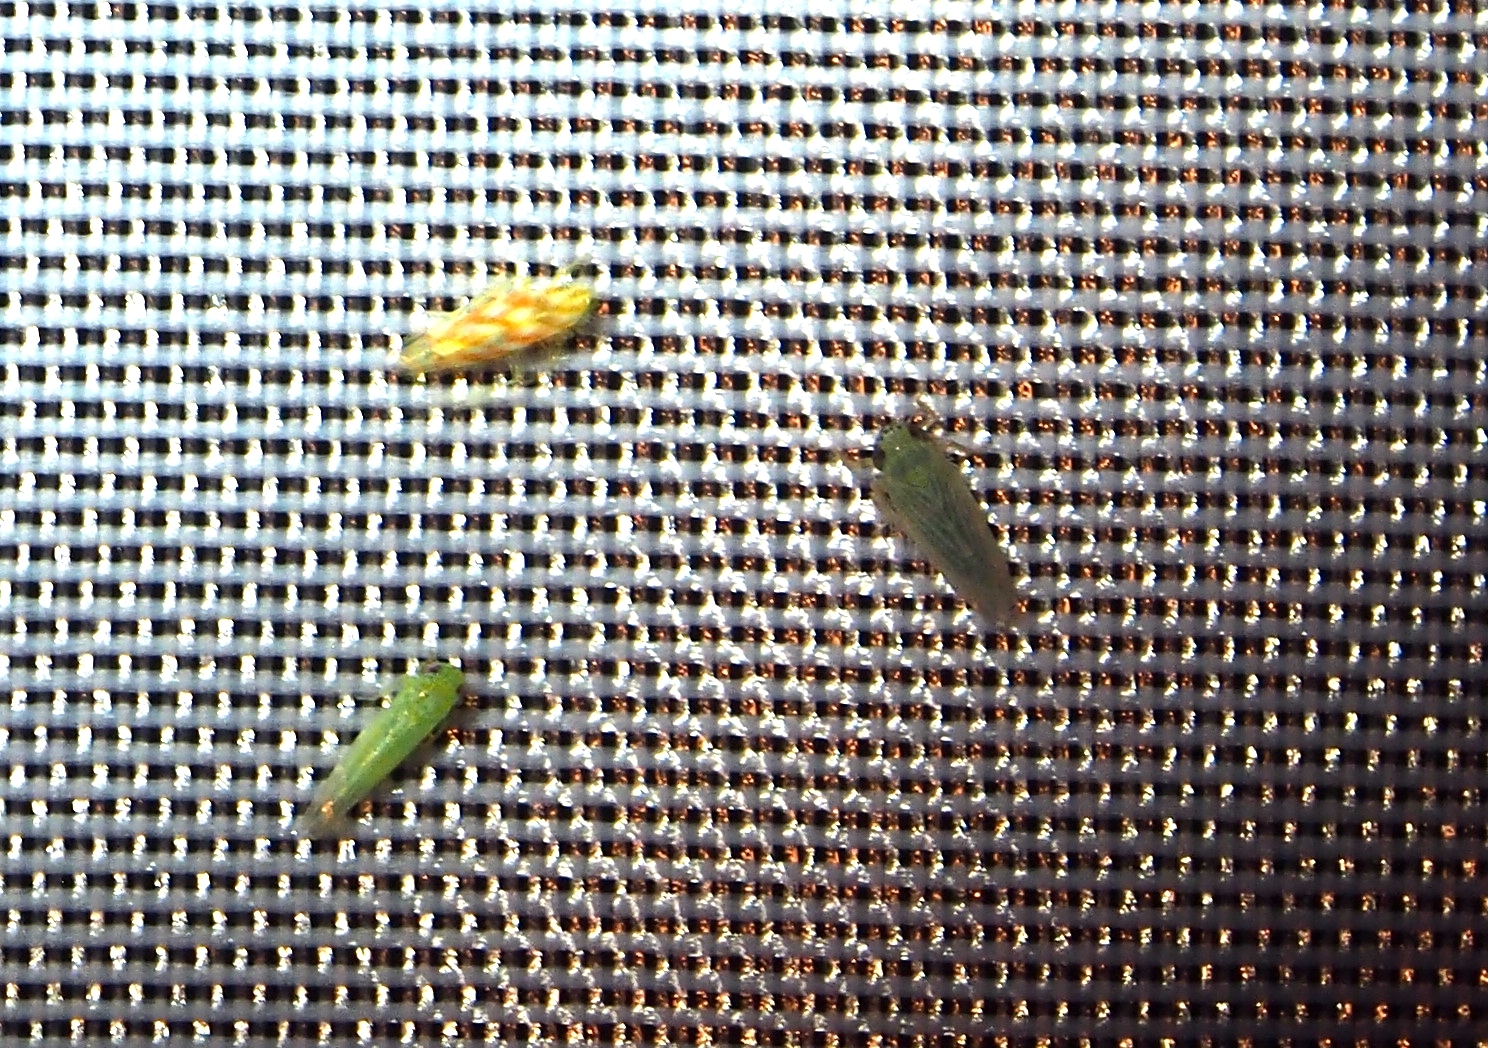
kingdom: Animalia
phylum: Arthropoda
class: Insecta
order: Hemiptera
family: Cicadellidae
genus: Empoasca
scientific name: Empoasca fabae
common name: Potato leafhopper
